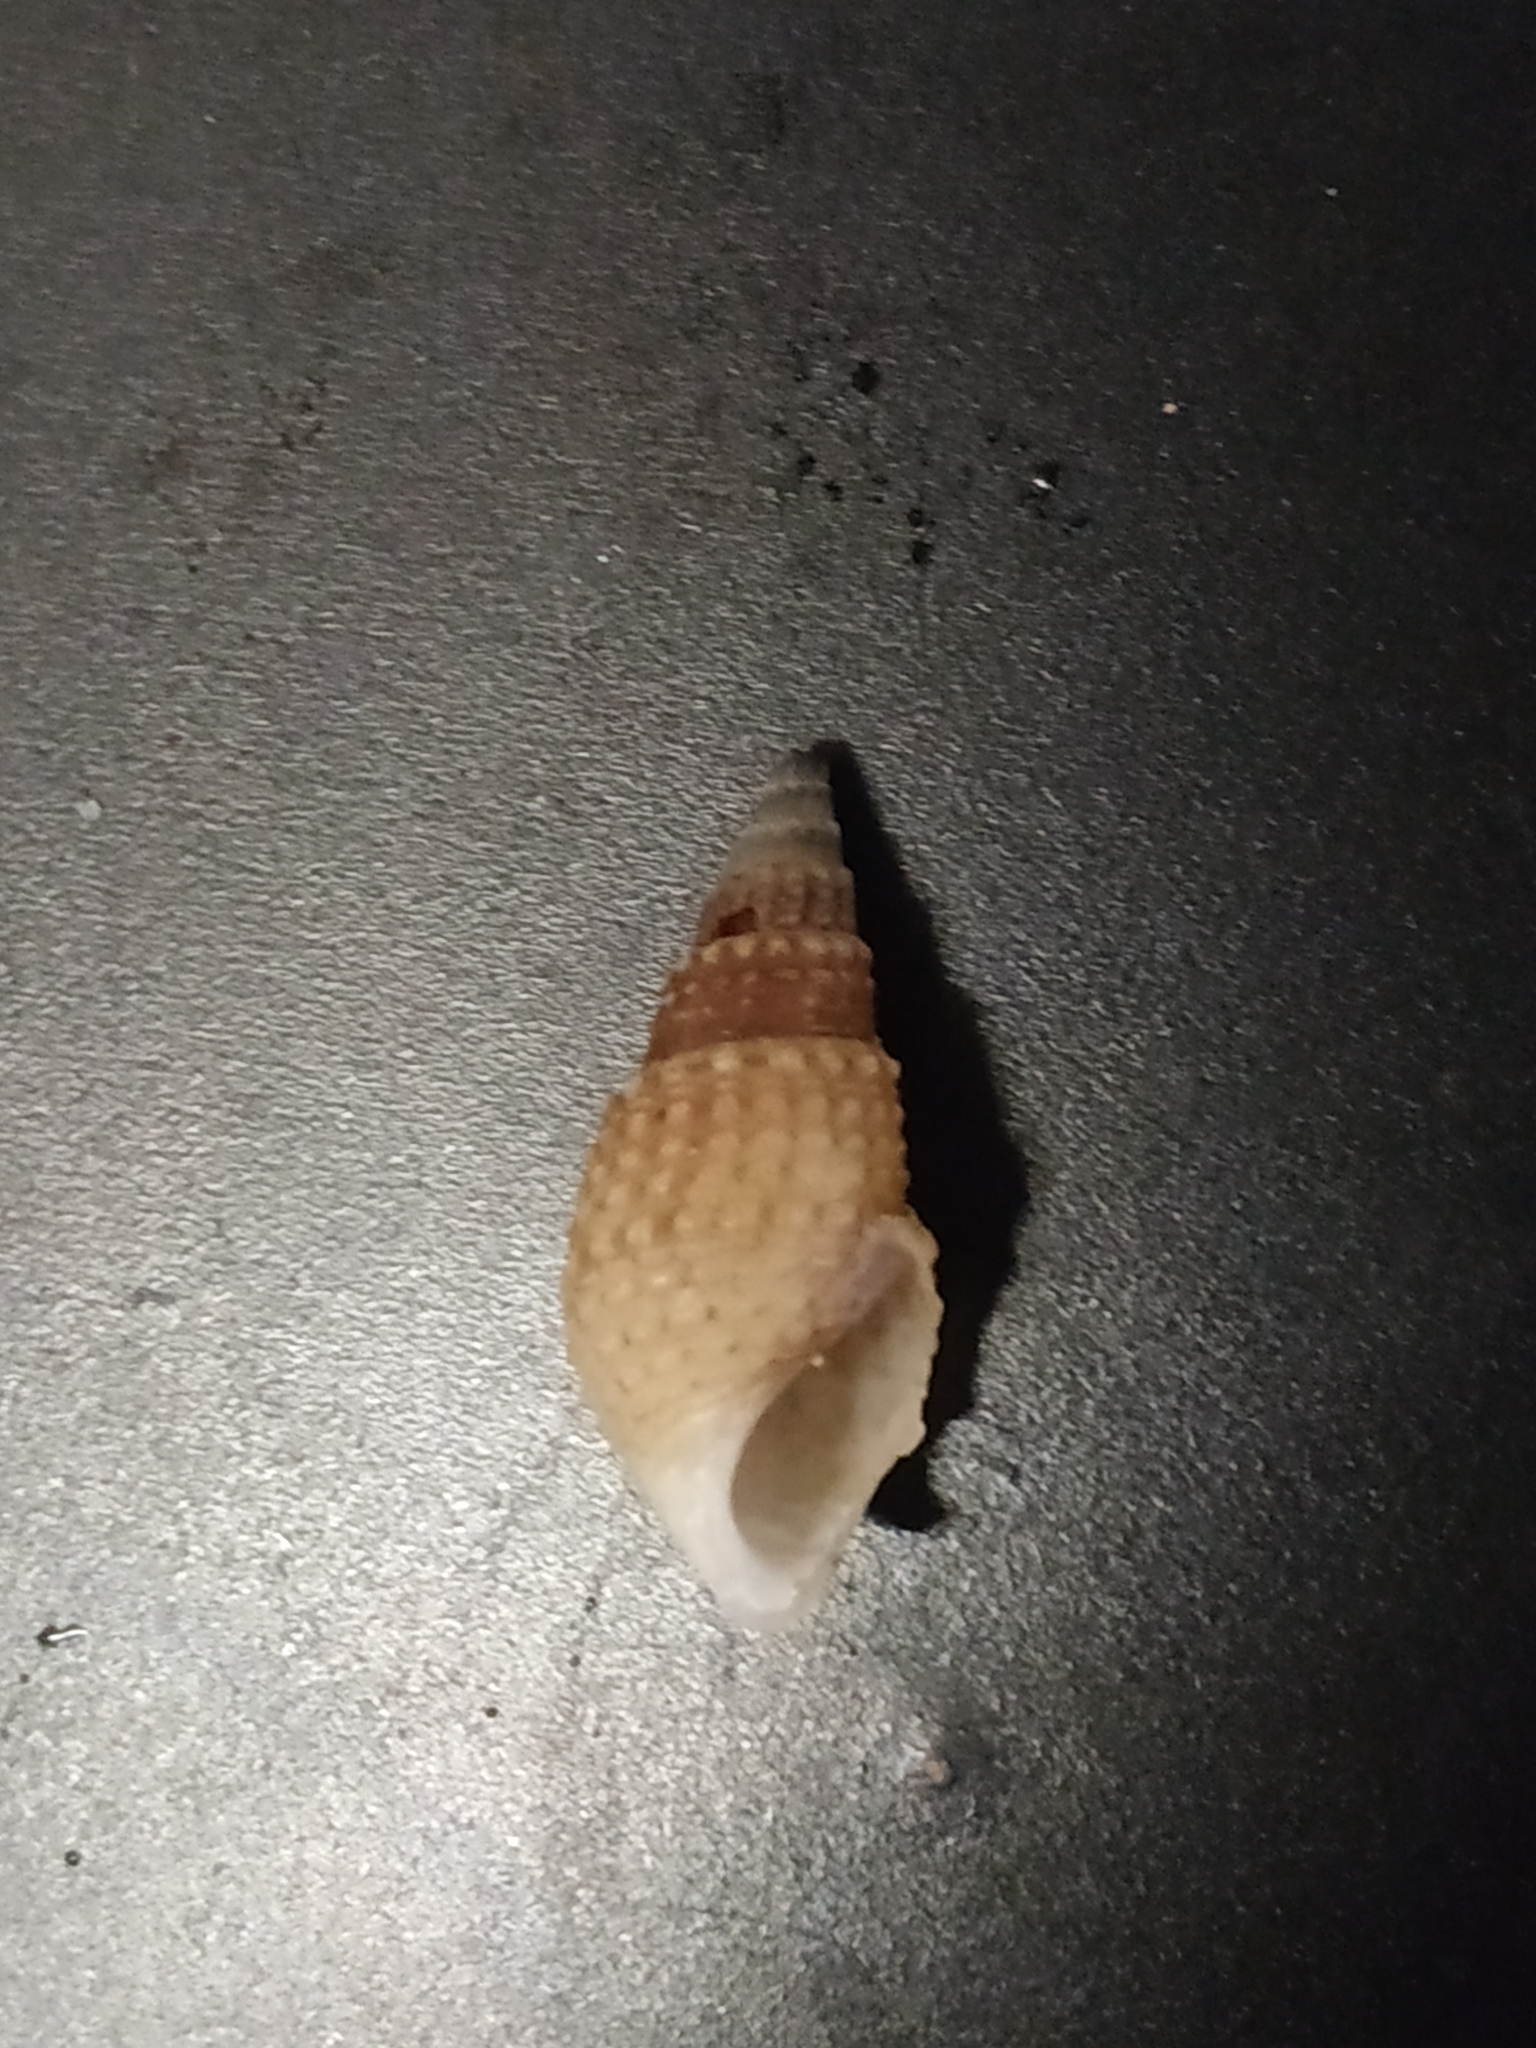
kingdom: Animalia
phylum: Mollusca
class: Gastropoda
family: Thiaridae
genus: Tarebia
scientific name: Tarebia granifera
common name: Quilted melania
